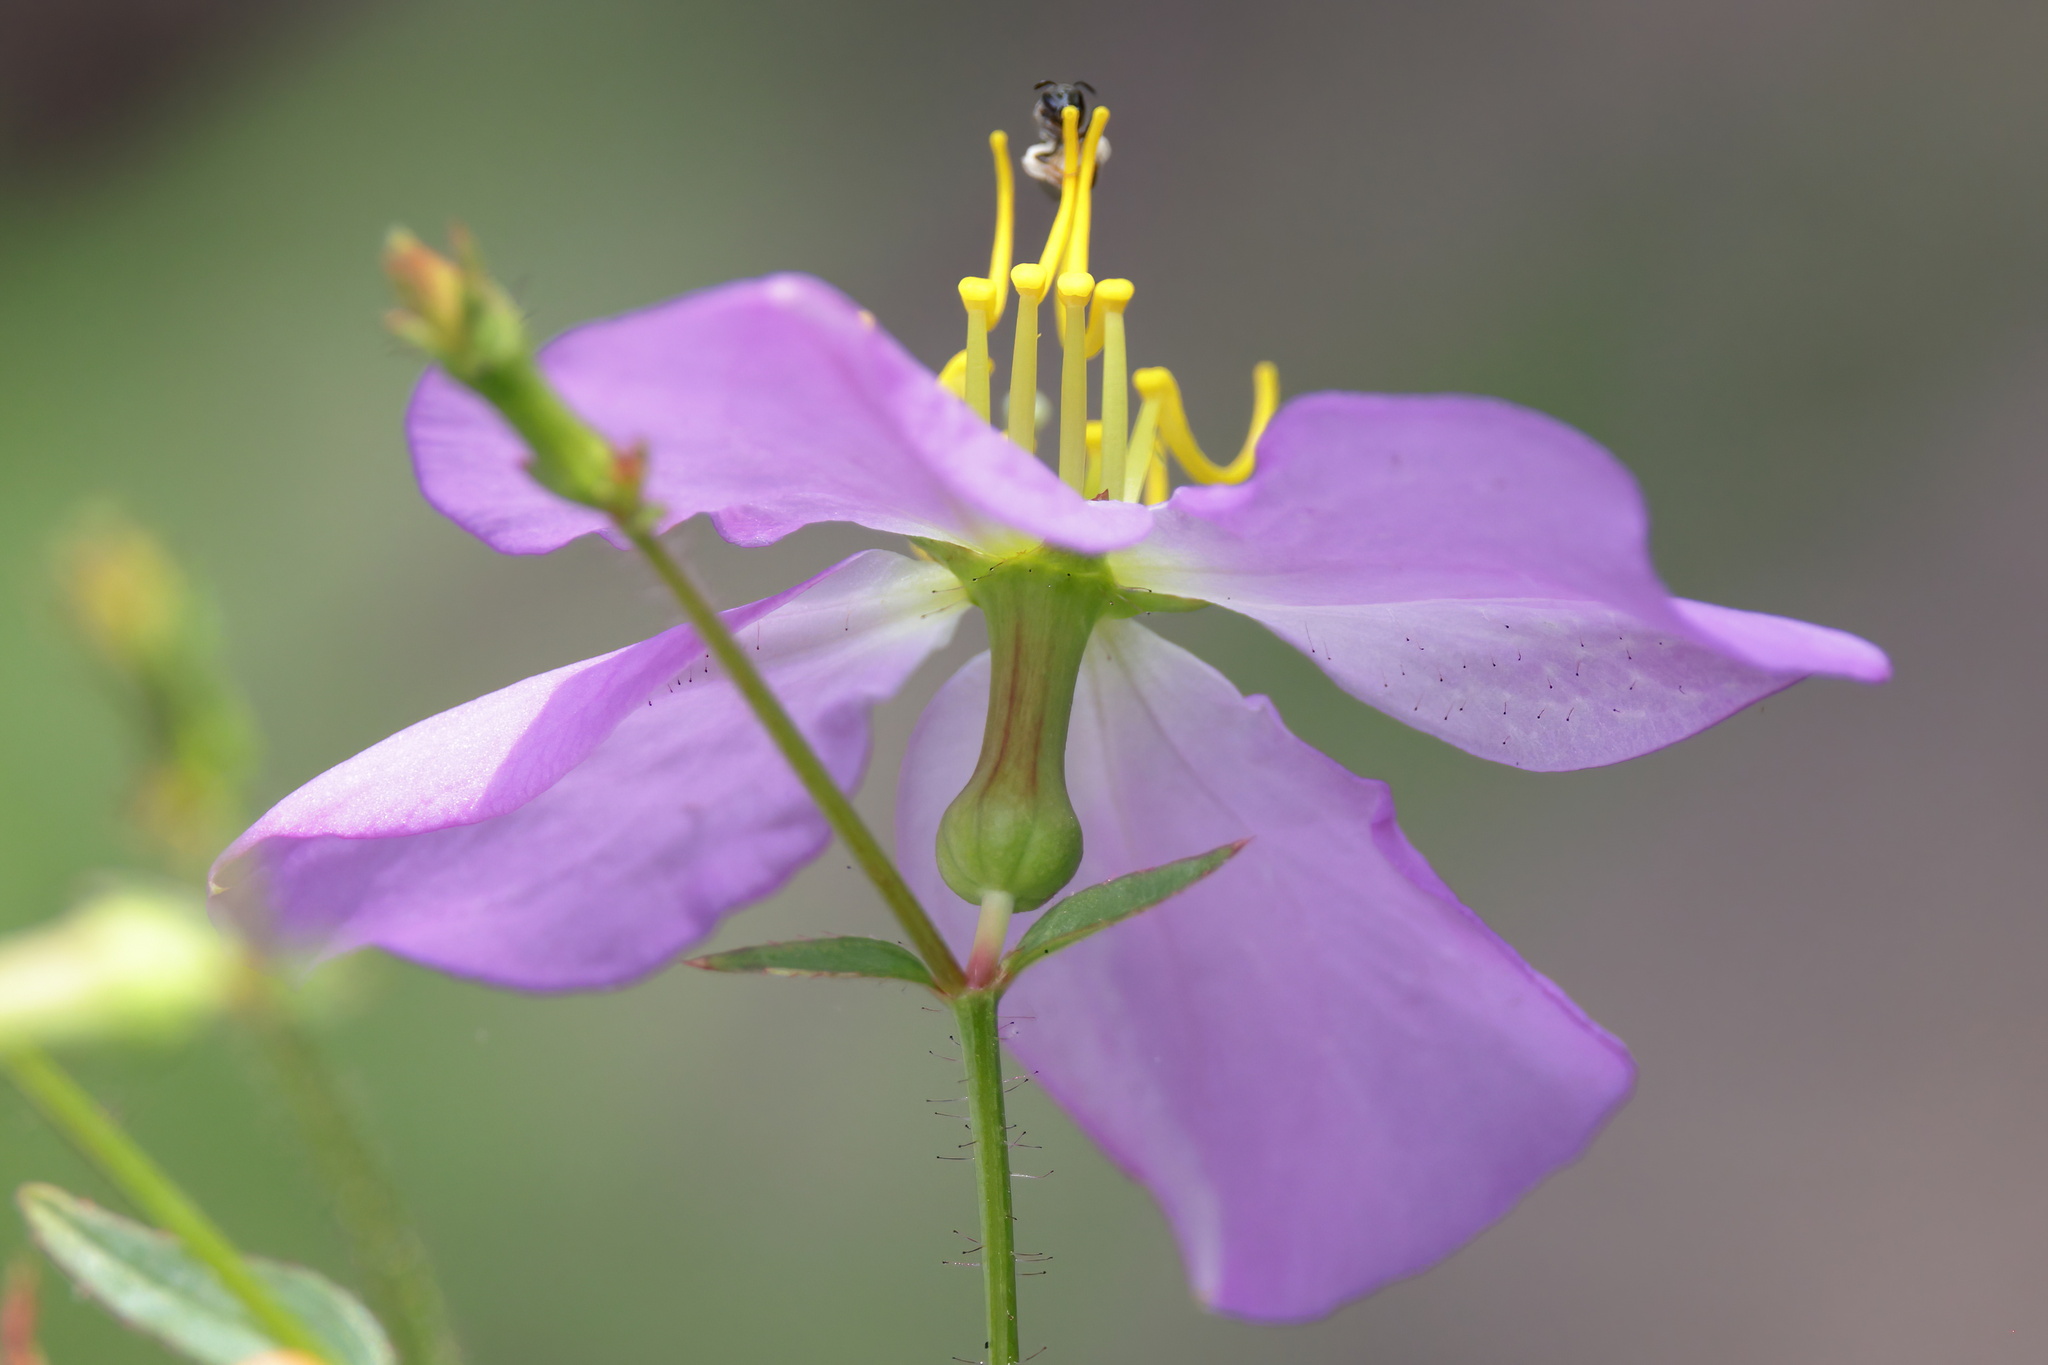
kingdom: Plantae
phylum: Tracheophyta
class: Magnoliopsida
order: Myrtales
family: Melastomataceae
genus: Rhexia
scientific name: Rhexia nashii
